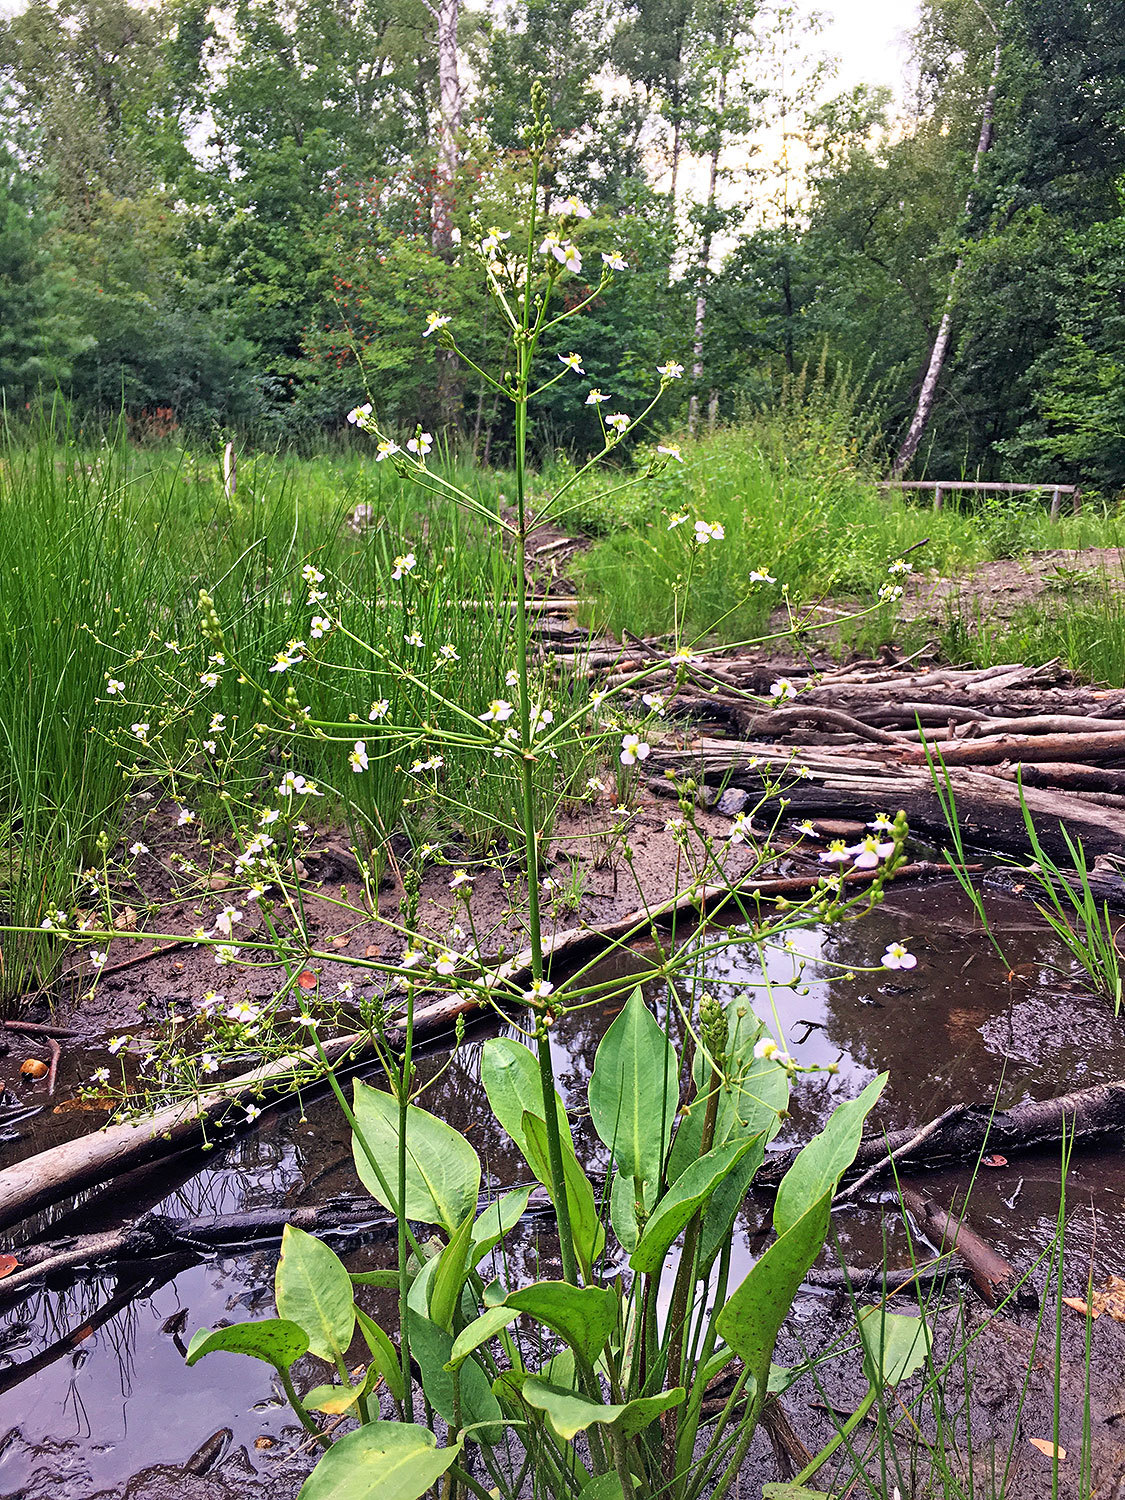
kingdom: Plantae
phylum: Tracheophyta
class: Liliopsida
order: Alismatales
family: Alismataceae
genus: Alisma
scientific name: Alisma plantago-aquatica
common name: Water-plantain
